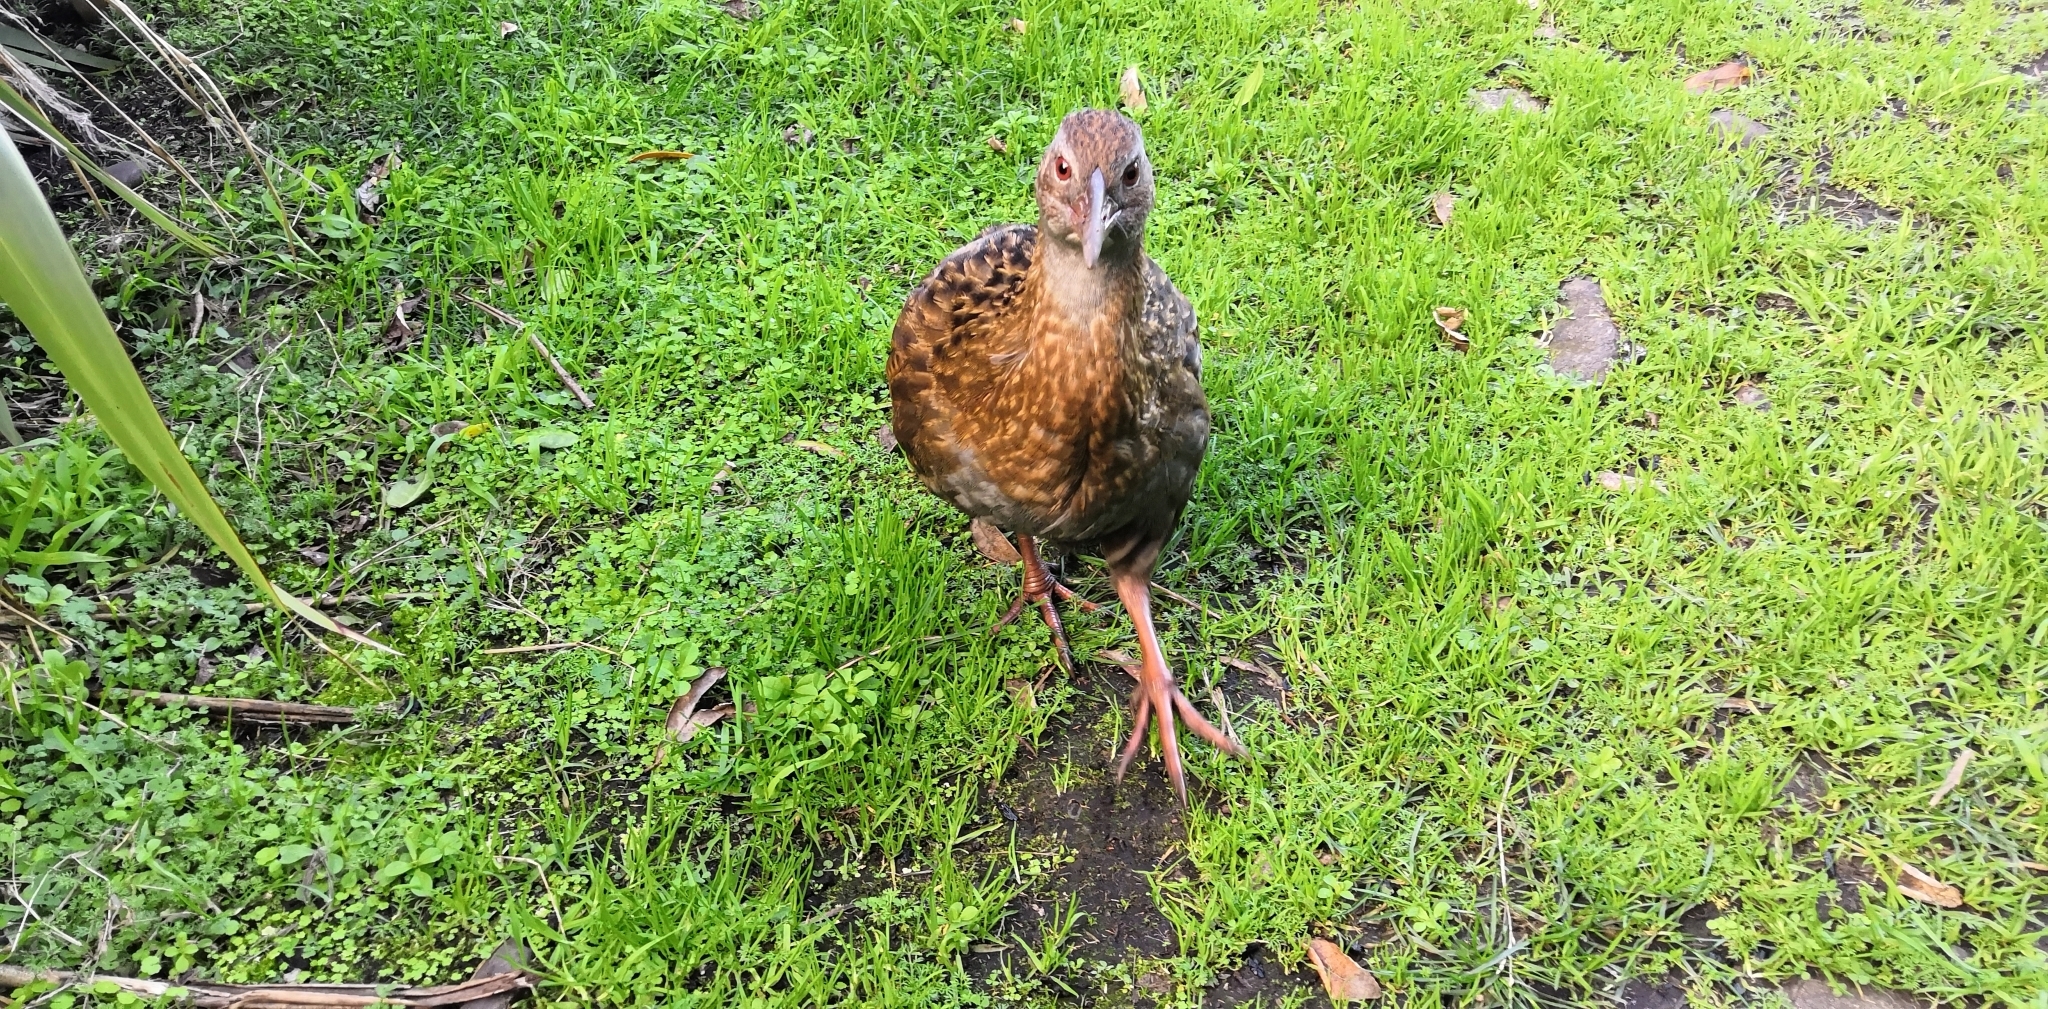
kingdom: Animalia
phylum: Chordata
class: Aves
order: Gruiformes
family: Rallidae
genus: Gallirallus
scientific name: Gallirallus australis
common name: Weka
